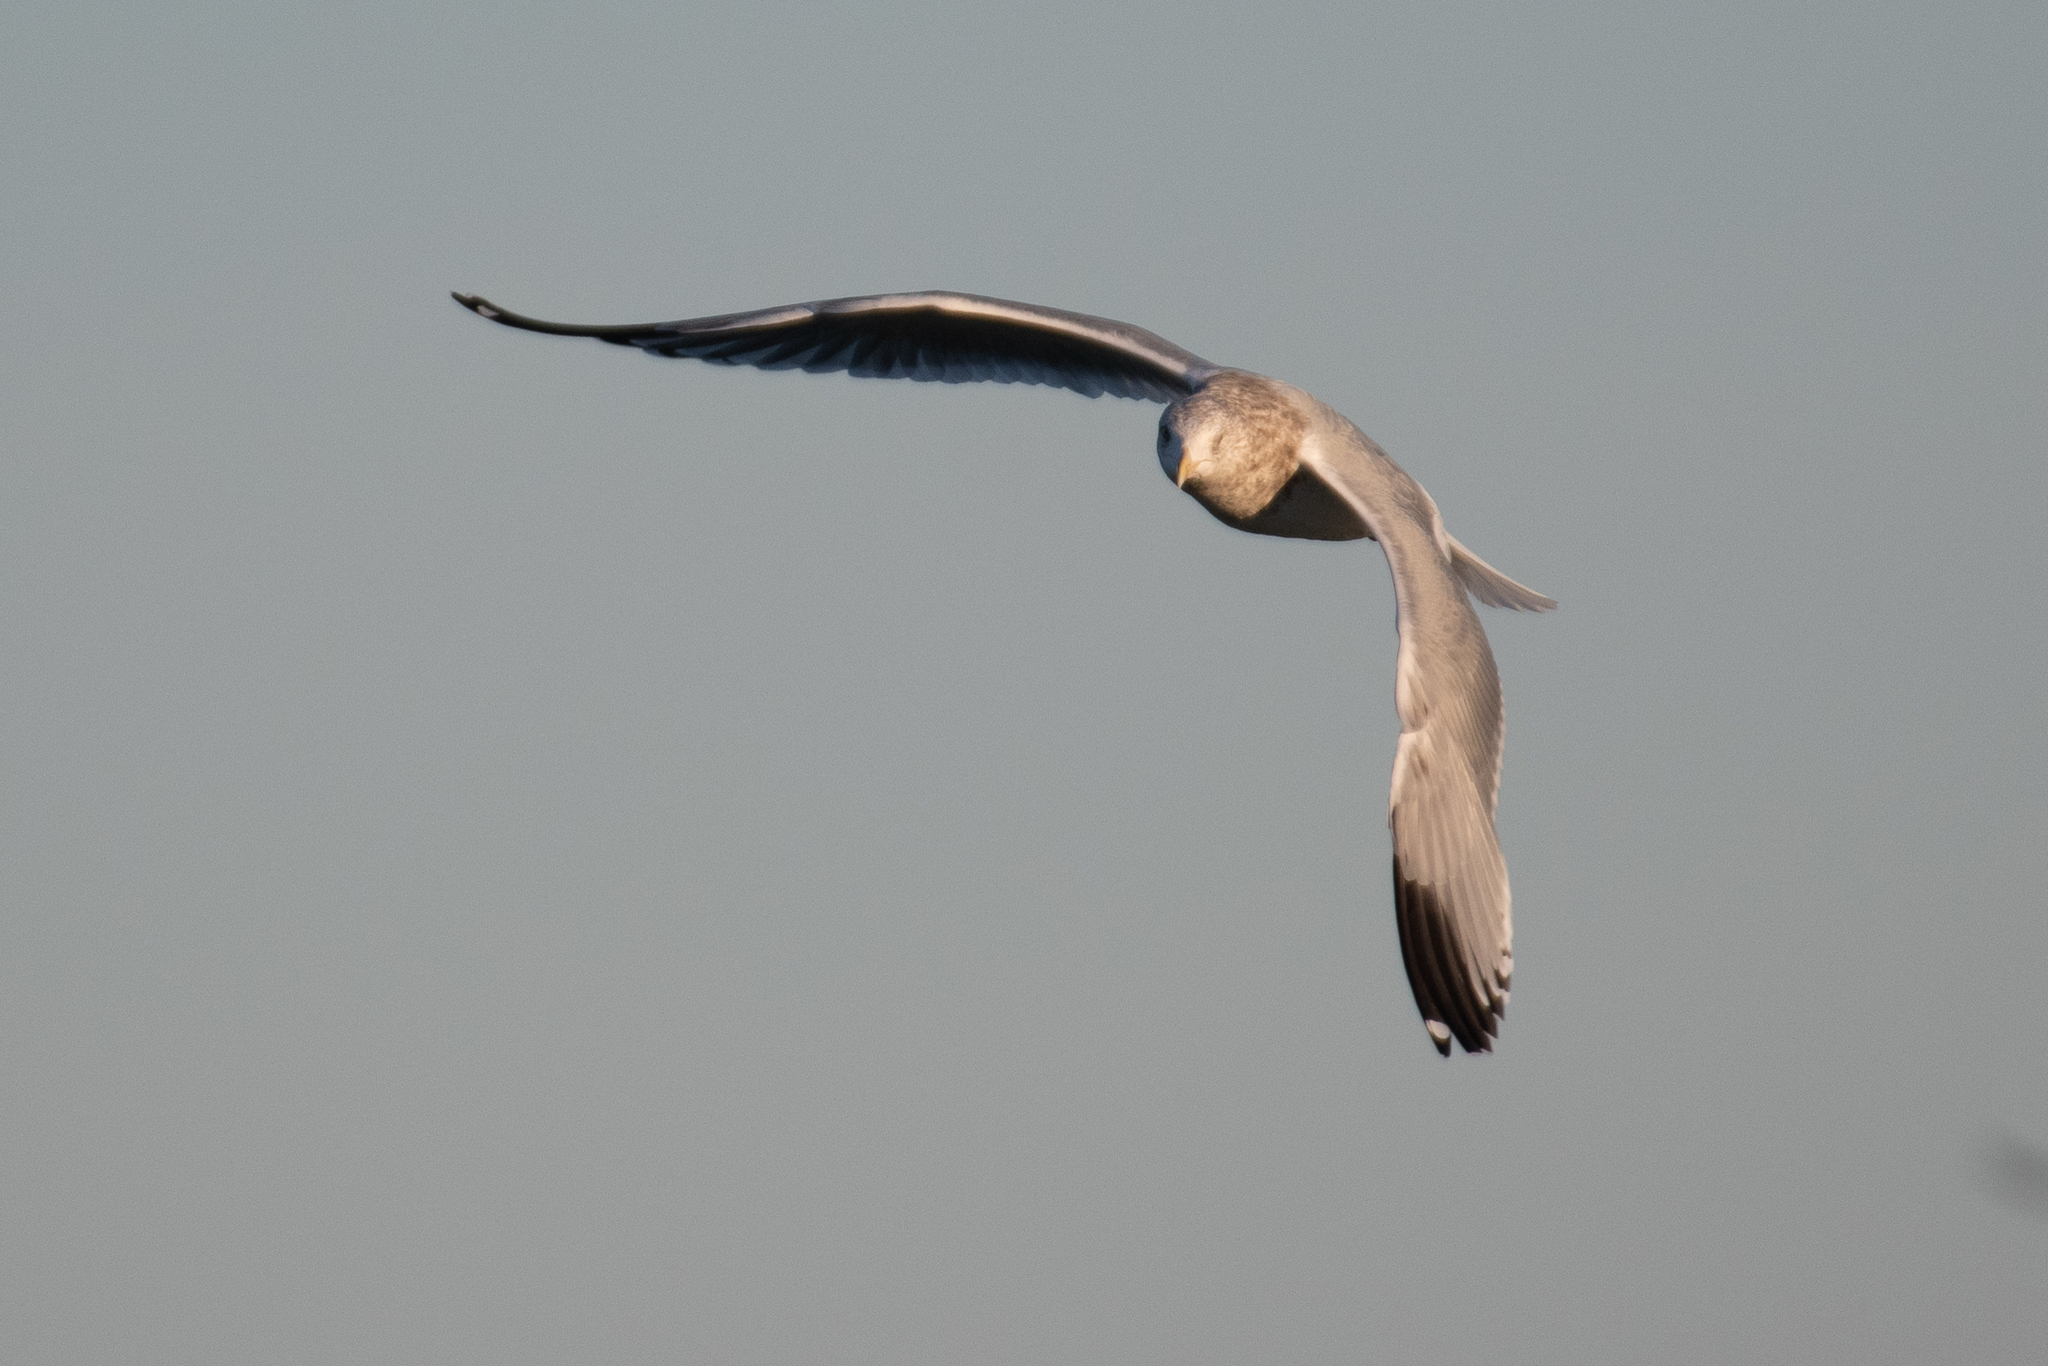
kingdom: Animalia
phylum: Chordata
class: Aves
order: Charadriiformes
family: Laridae
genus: Larus
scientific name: Larus argentatus
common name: Herring gull
